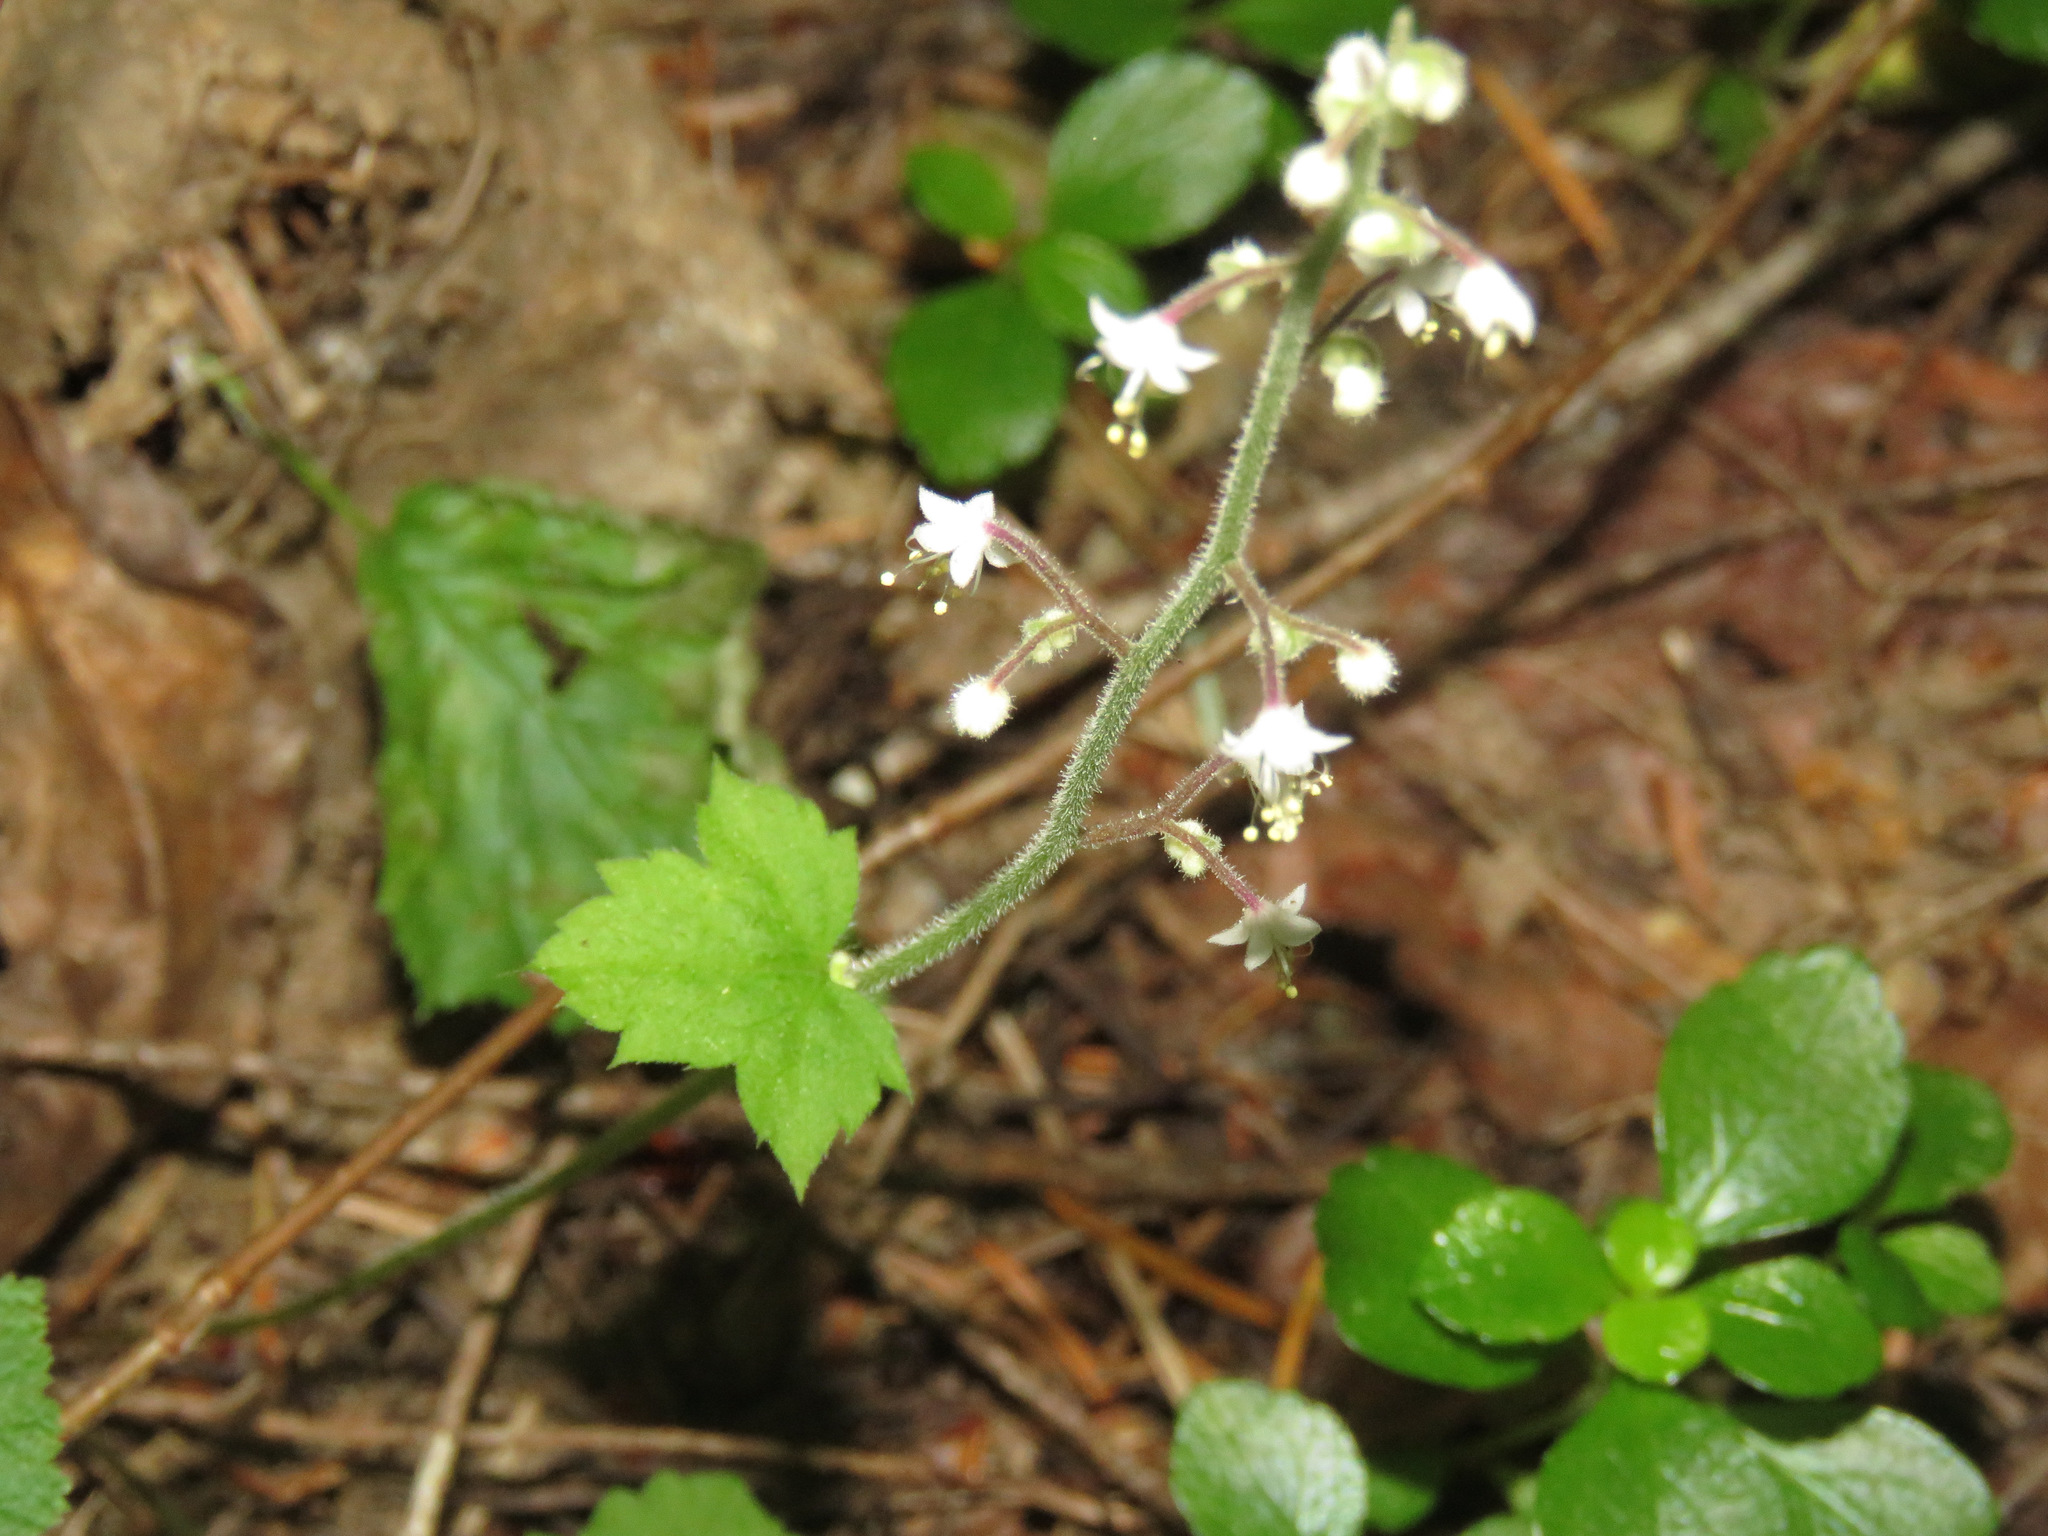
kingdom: Plantae
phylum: Tracheophyta
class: Magnoliopsida
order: Saxifragales
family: Saxifragaceae
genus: Tiarella
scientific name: Tiarella trifoliata
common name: Sugar-scoop
